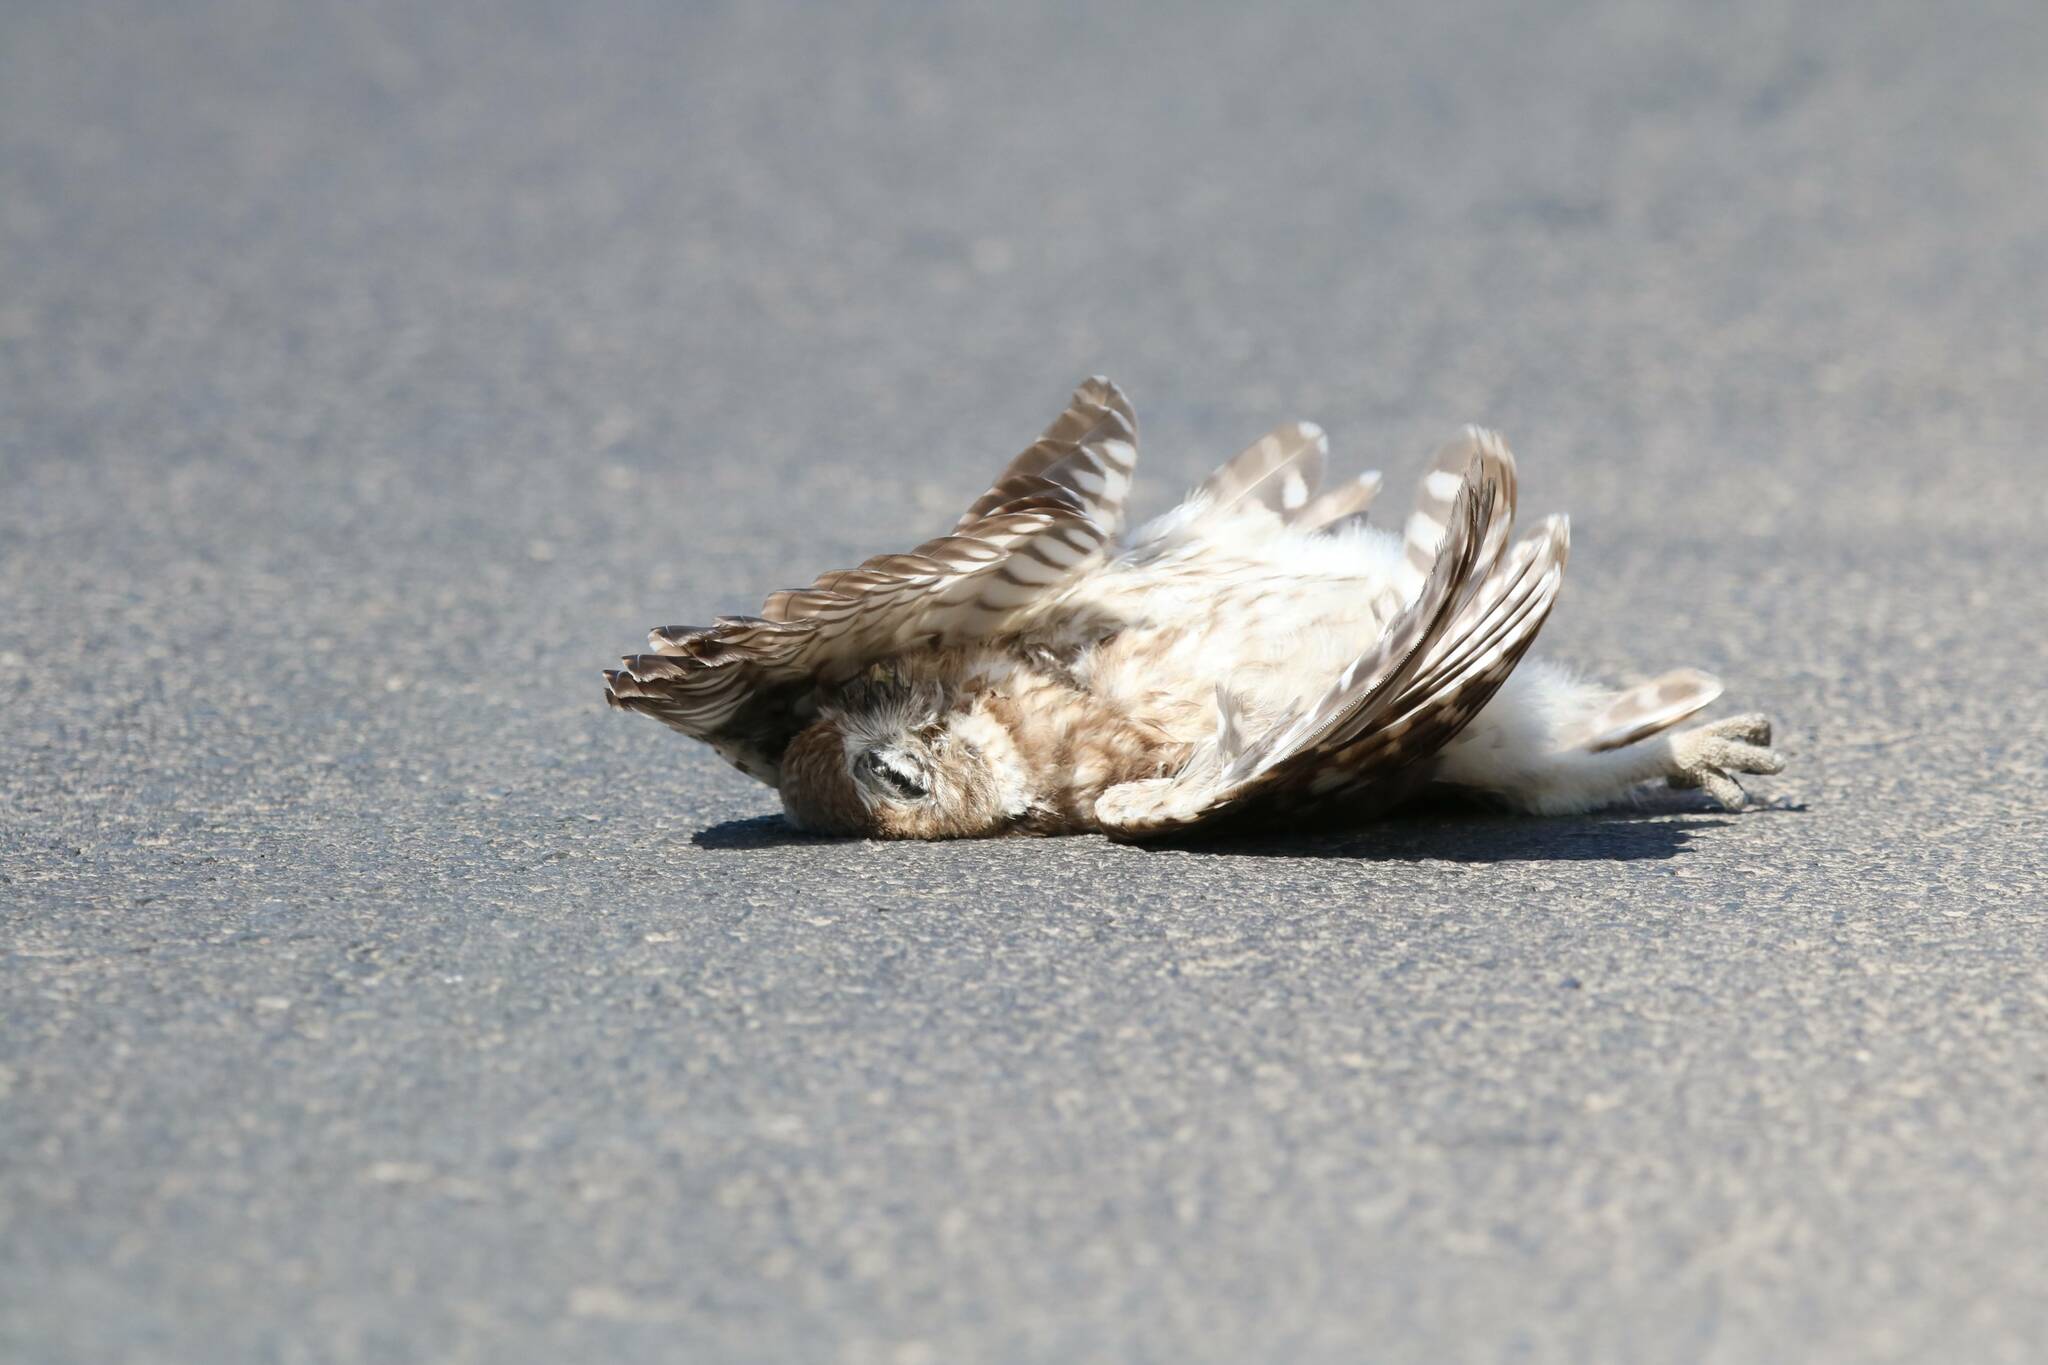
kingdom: Animalia
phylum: Chordata
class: Aves
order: Strigiformes
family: Strigidae
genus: Athene
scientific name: Athene noctua
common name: Little owl
